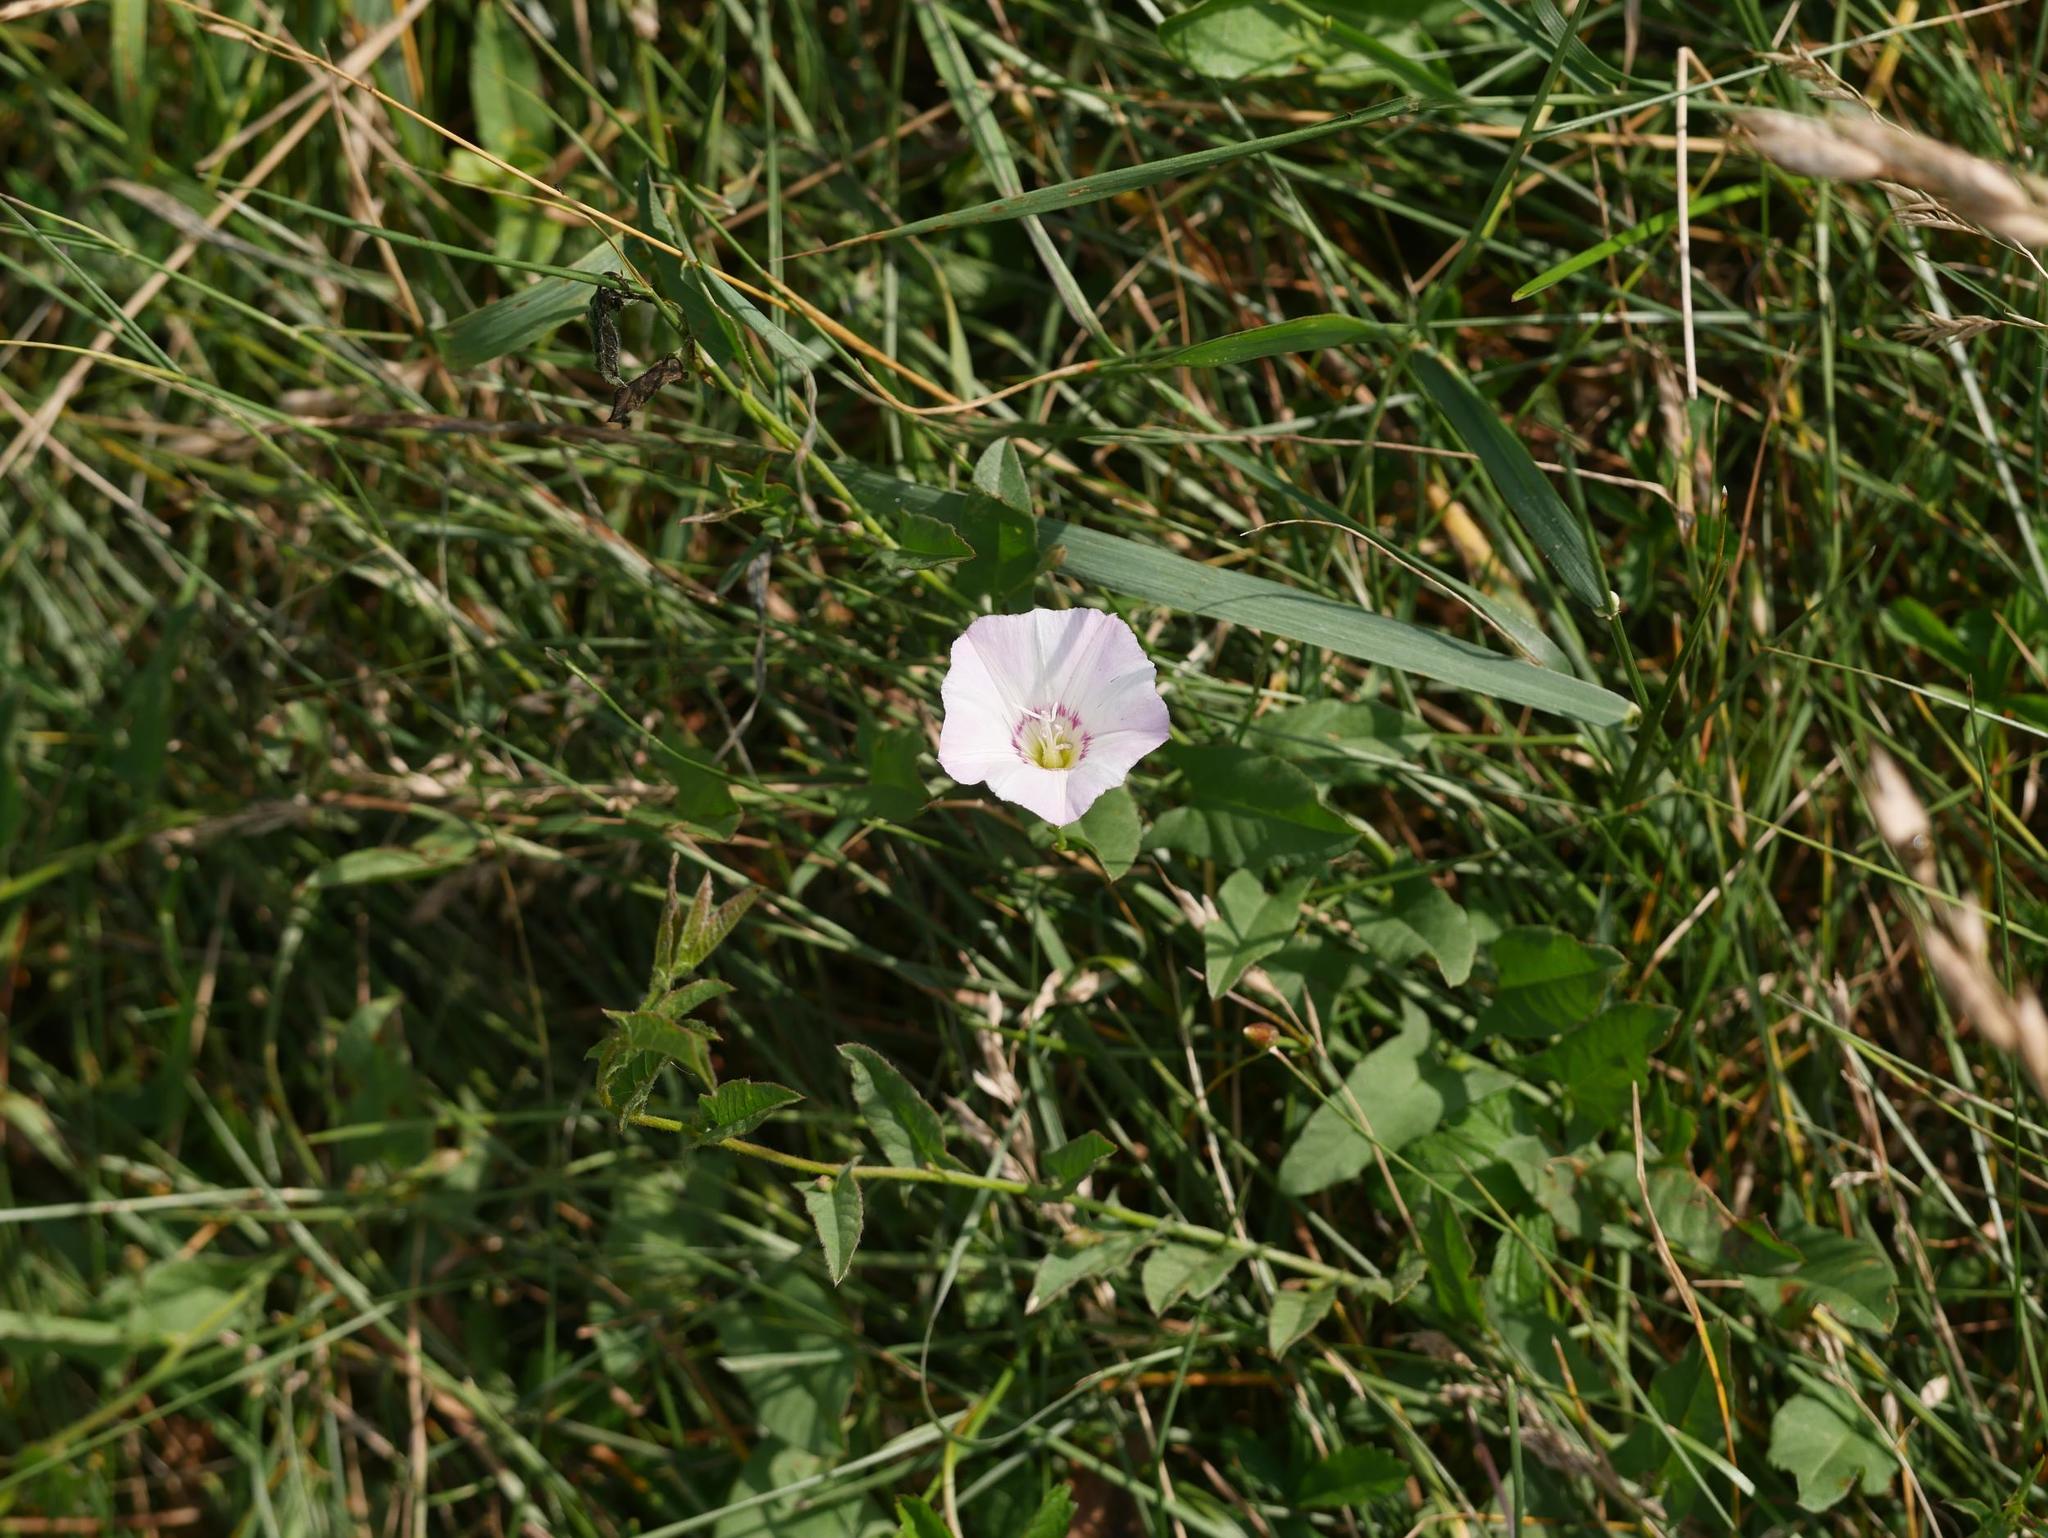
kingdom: Plantae
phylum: Tracheophyta
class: Magnoliopsida
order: Solanales
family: Convolvulaceae
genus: Convolvulus
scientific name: Convolvulus arvensis
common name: Field bindweed
